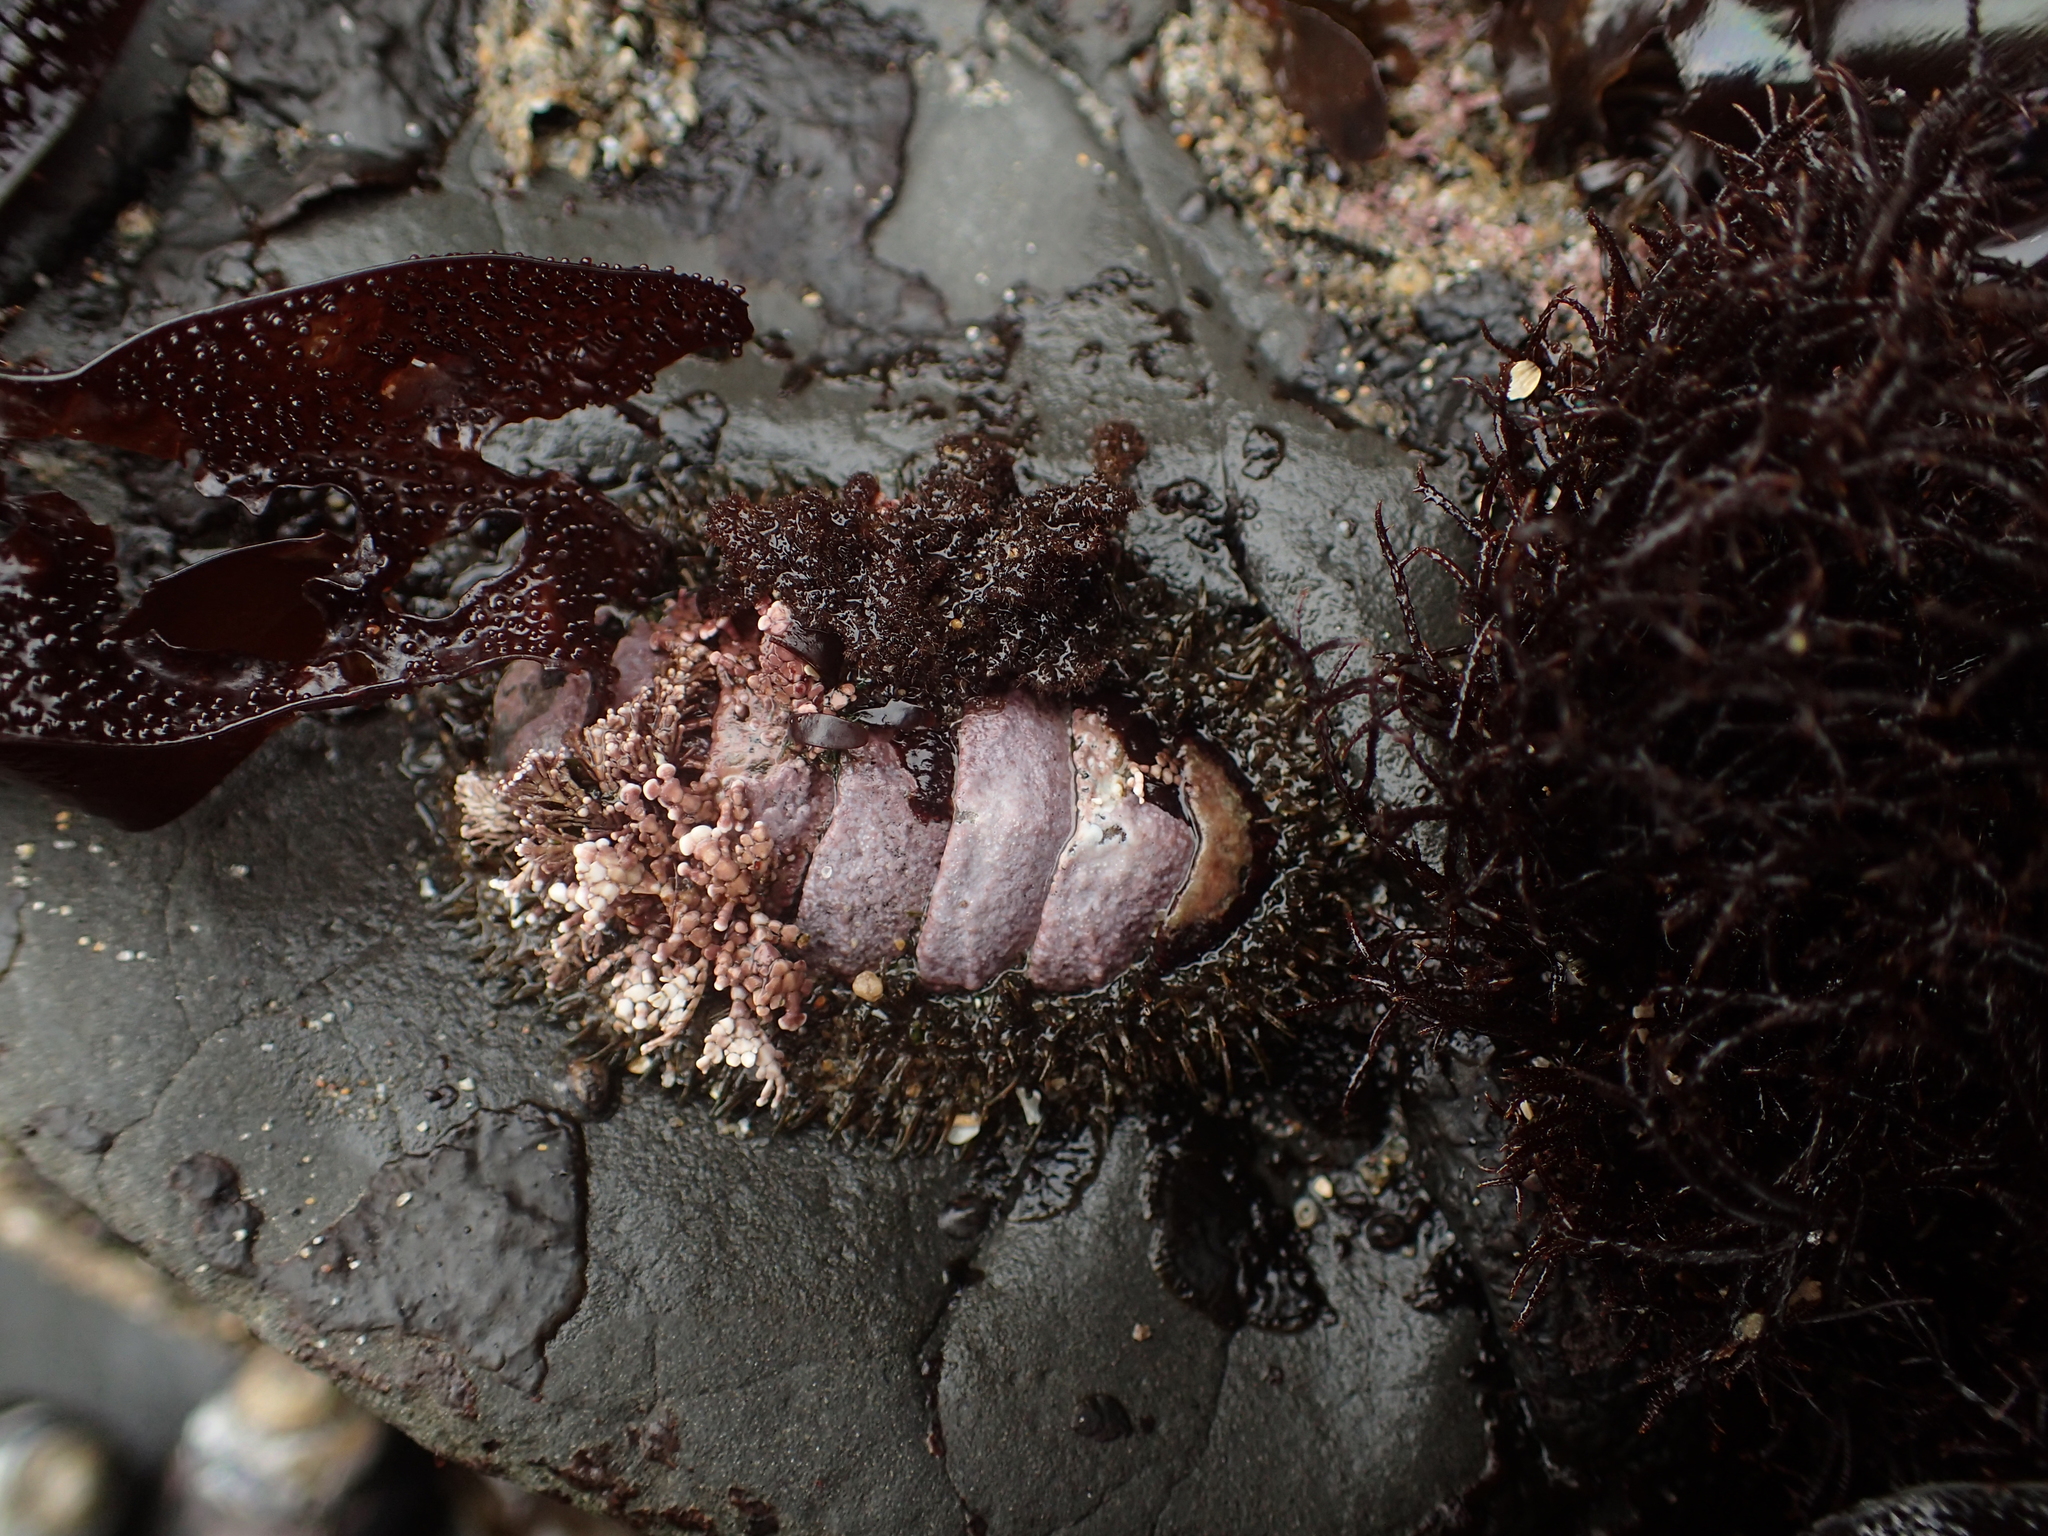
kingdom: Animalia
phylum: Mollusca
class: Polyplacophora
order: Chitonida
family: Mopaliidae
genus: Mopalia
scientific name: Mopalia muscosa
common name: Mossy chiton
